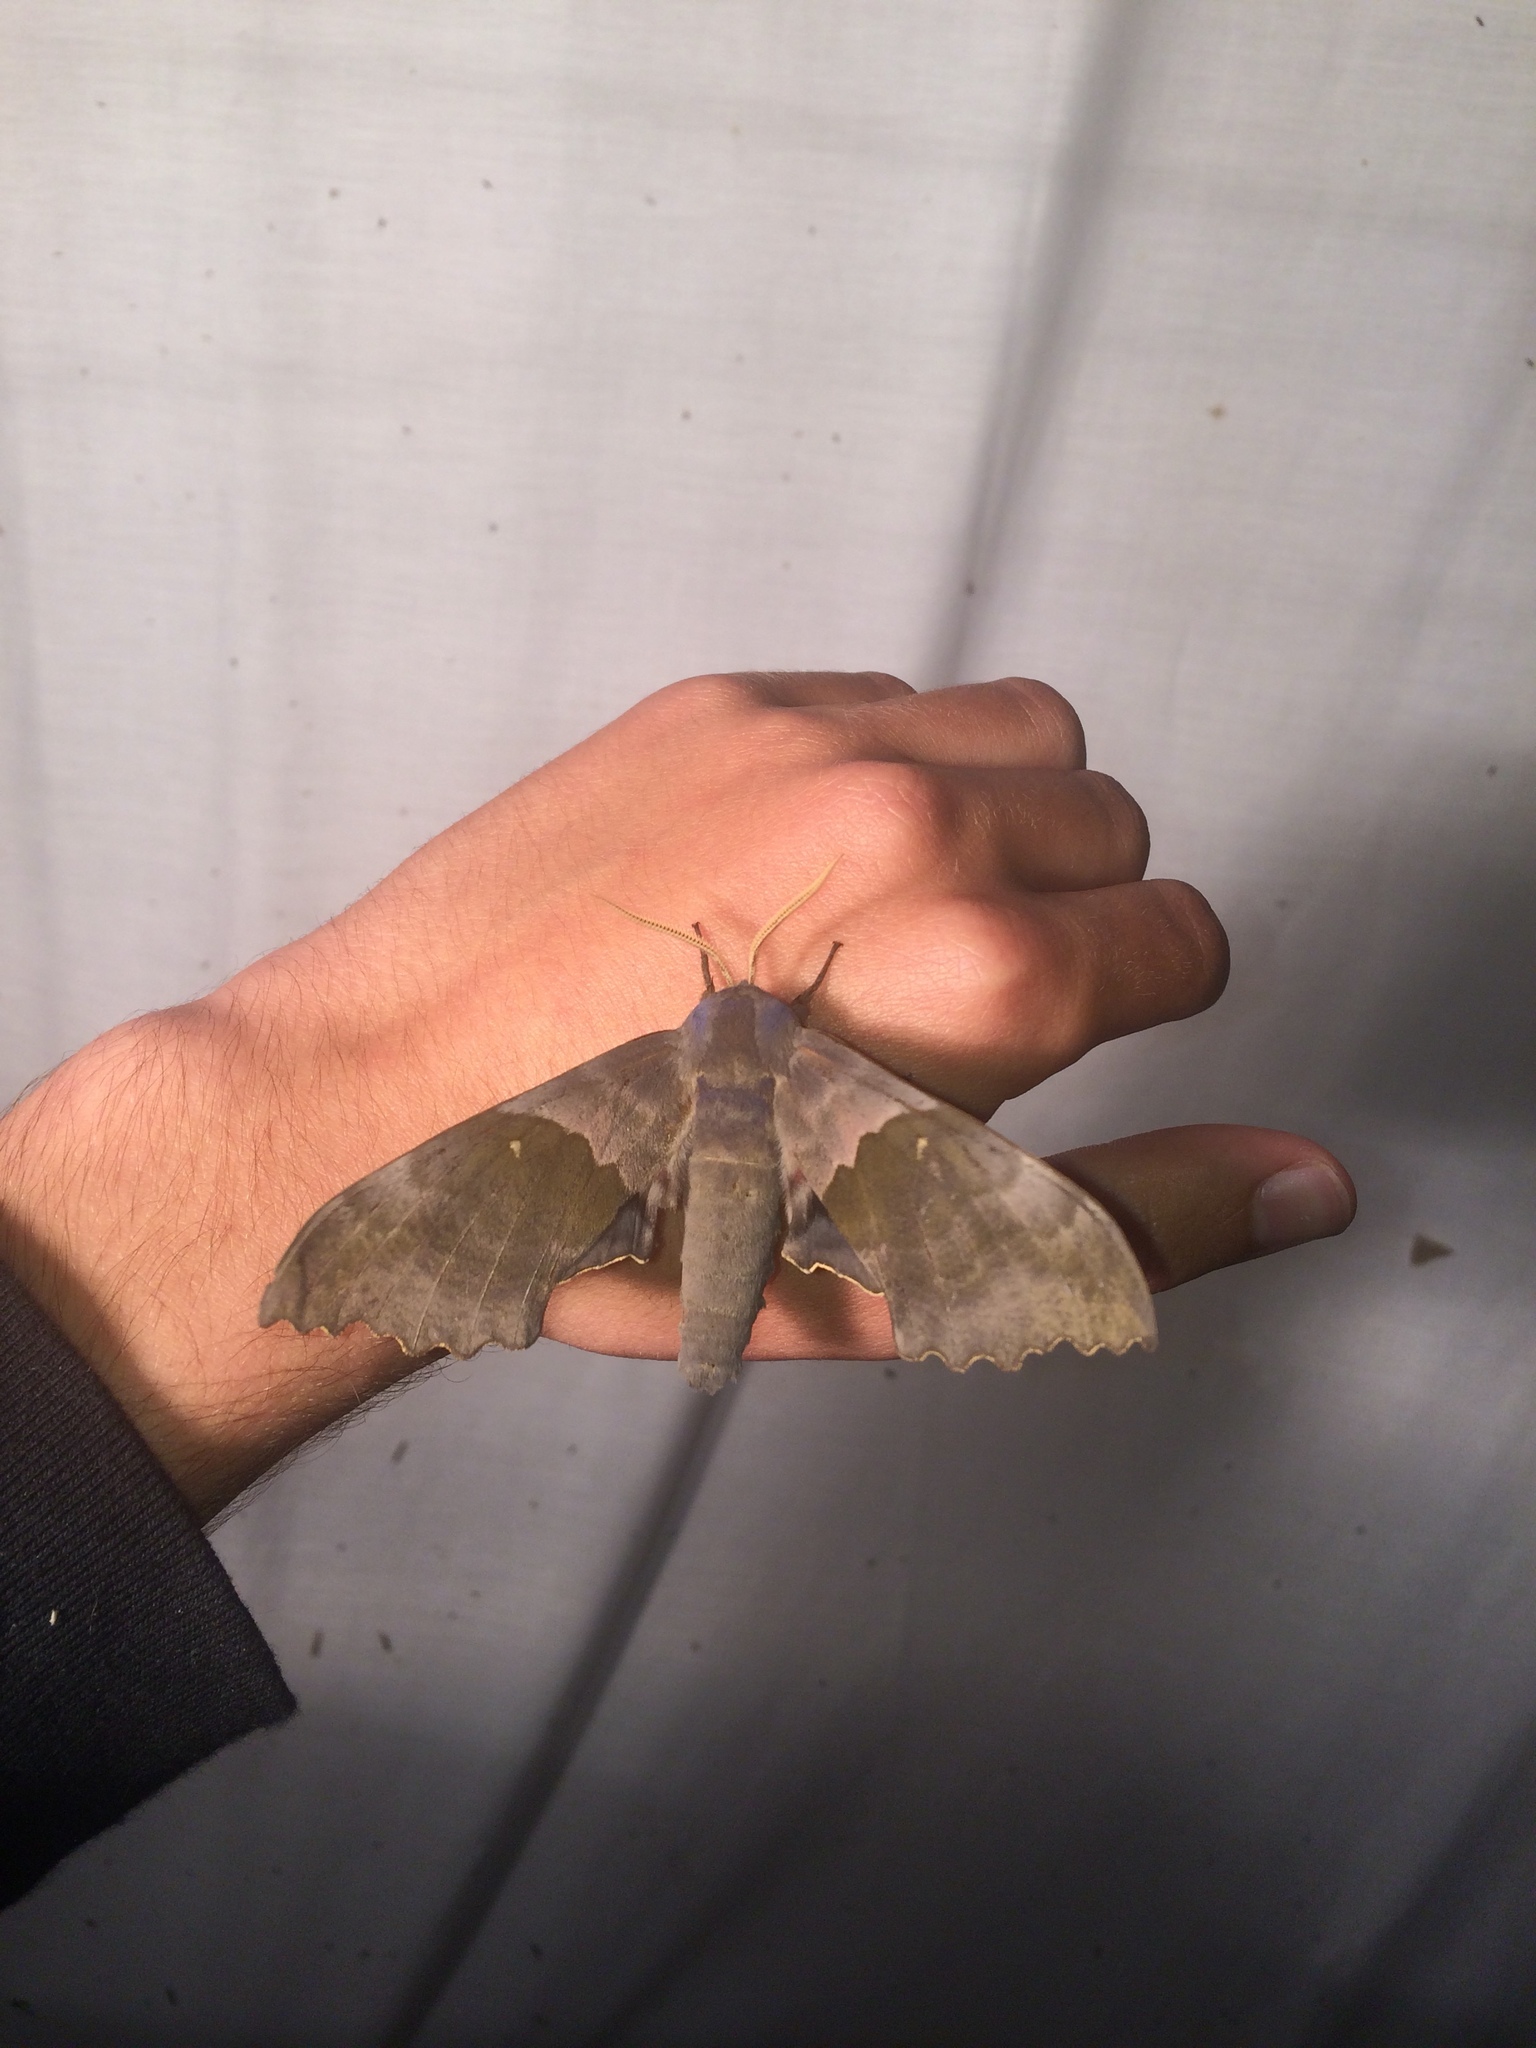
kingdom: Animalia
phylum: Arthropoda
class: Insecta
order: Lepidoptera
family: Sphingidae
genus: Pachysphinx
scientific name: Pachysphinx modesta
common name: Big poplar sphinx
